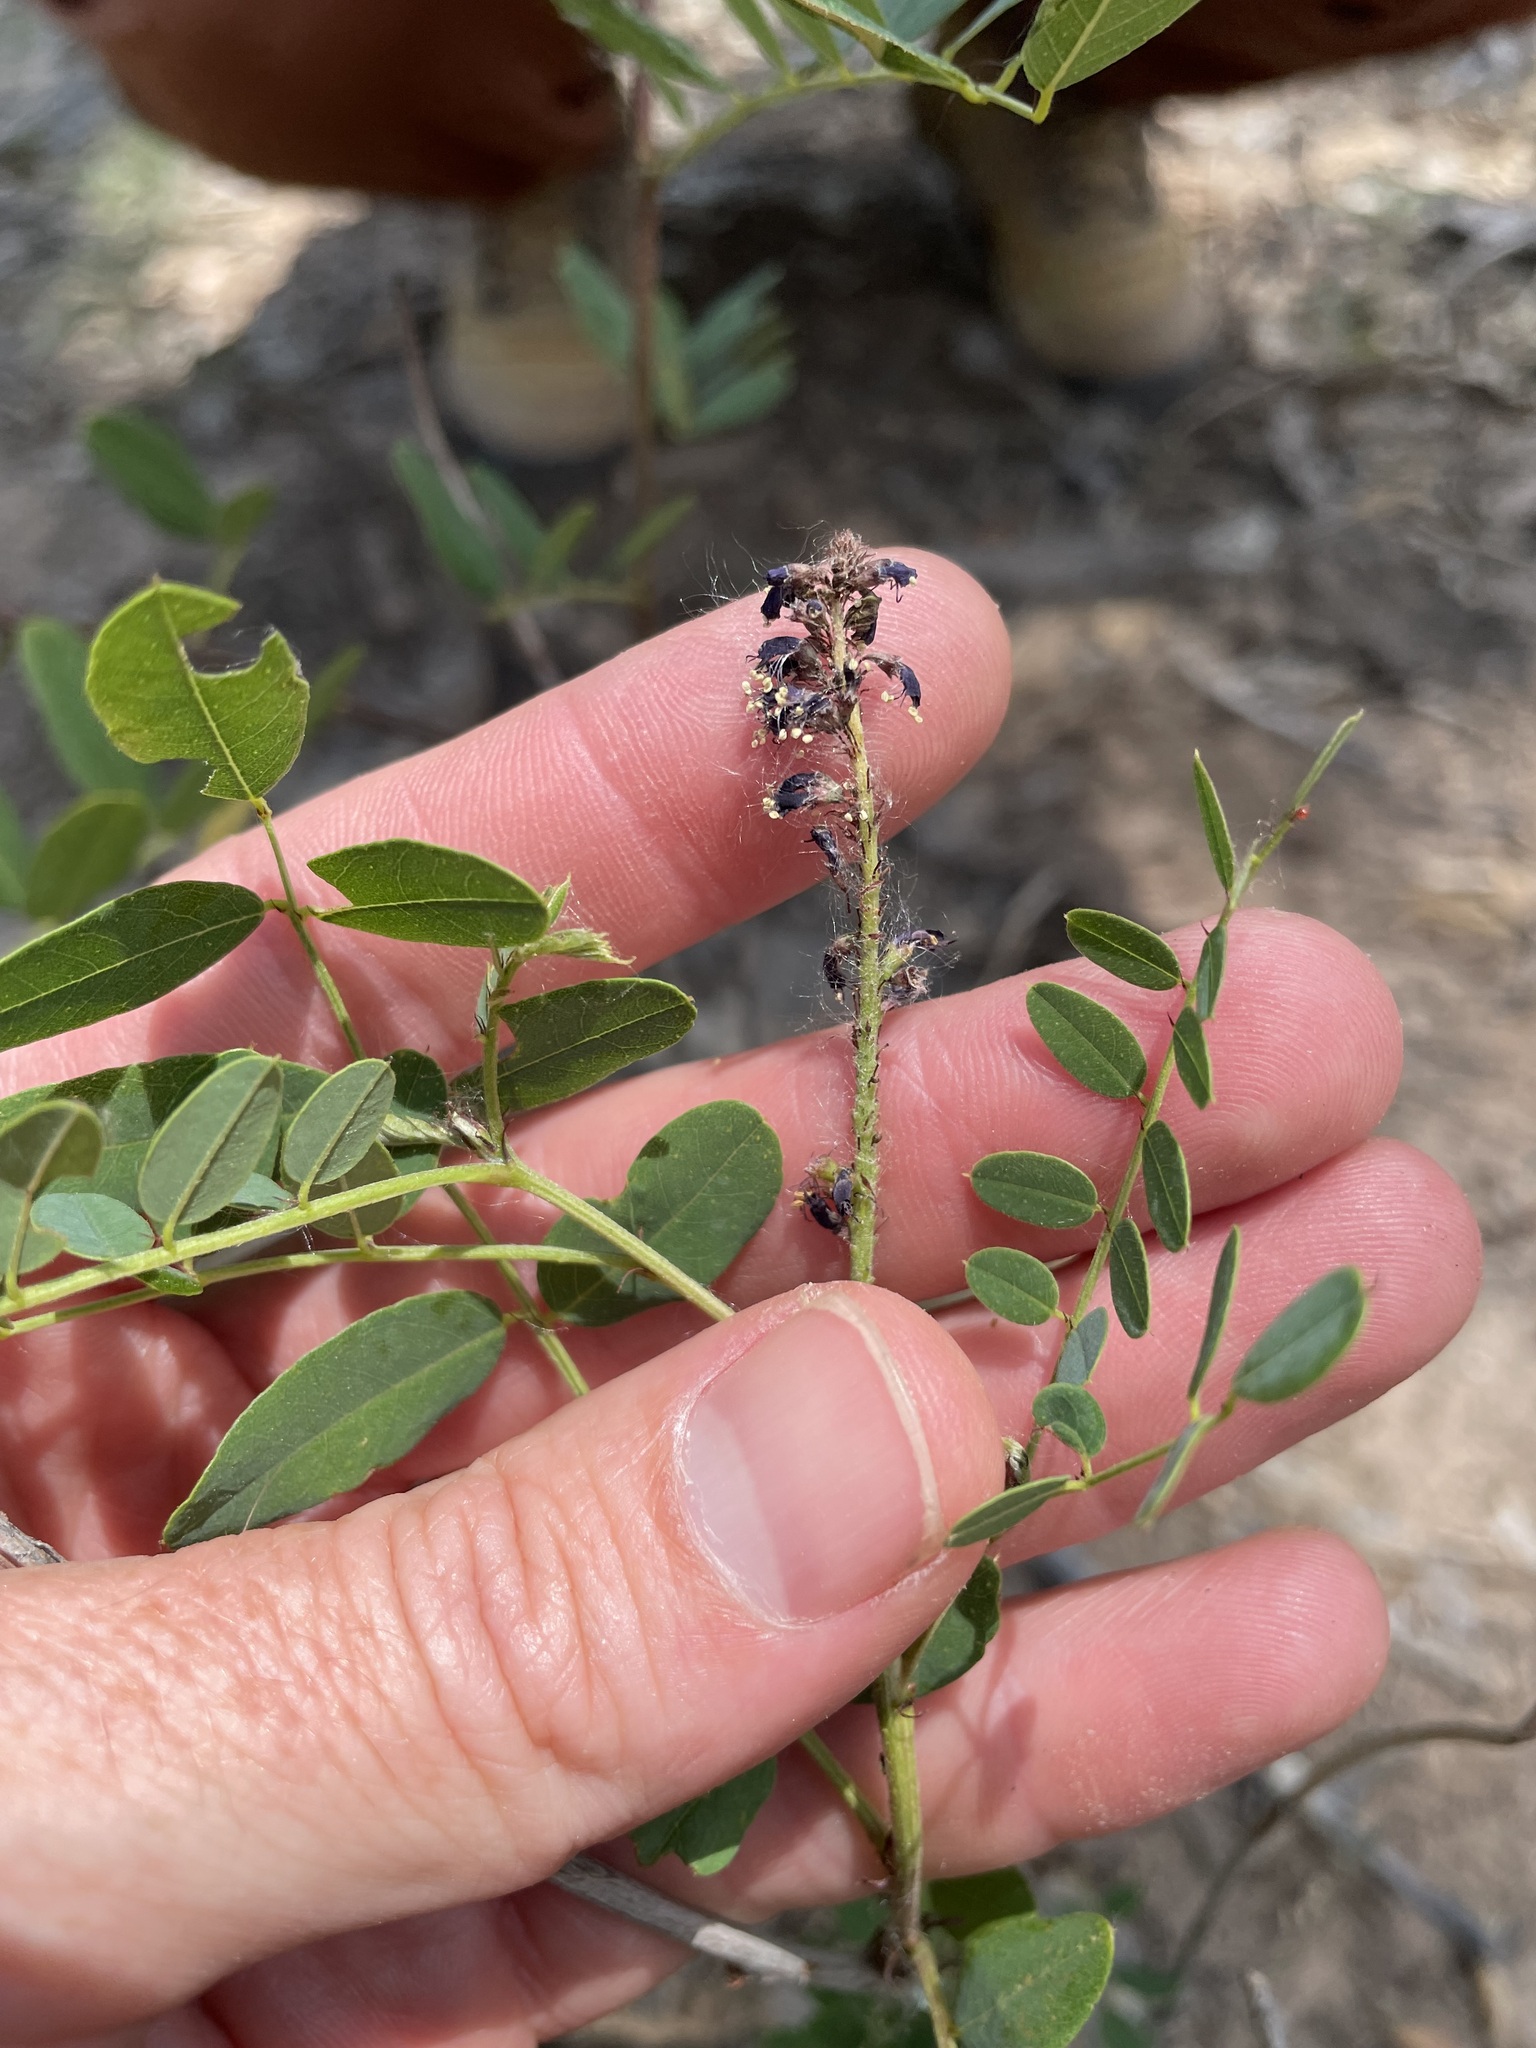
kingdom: Plantae
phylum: Tracheophyta
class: Magnoliopsida
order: Fabales
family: Fabaceae
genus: Amorpha
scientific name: Amorpha fruticosa
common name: False indigo
